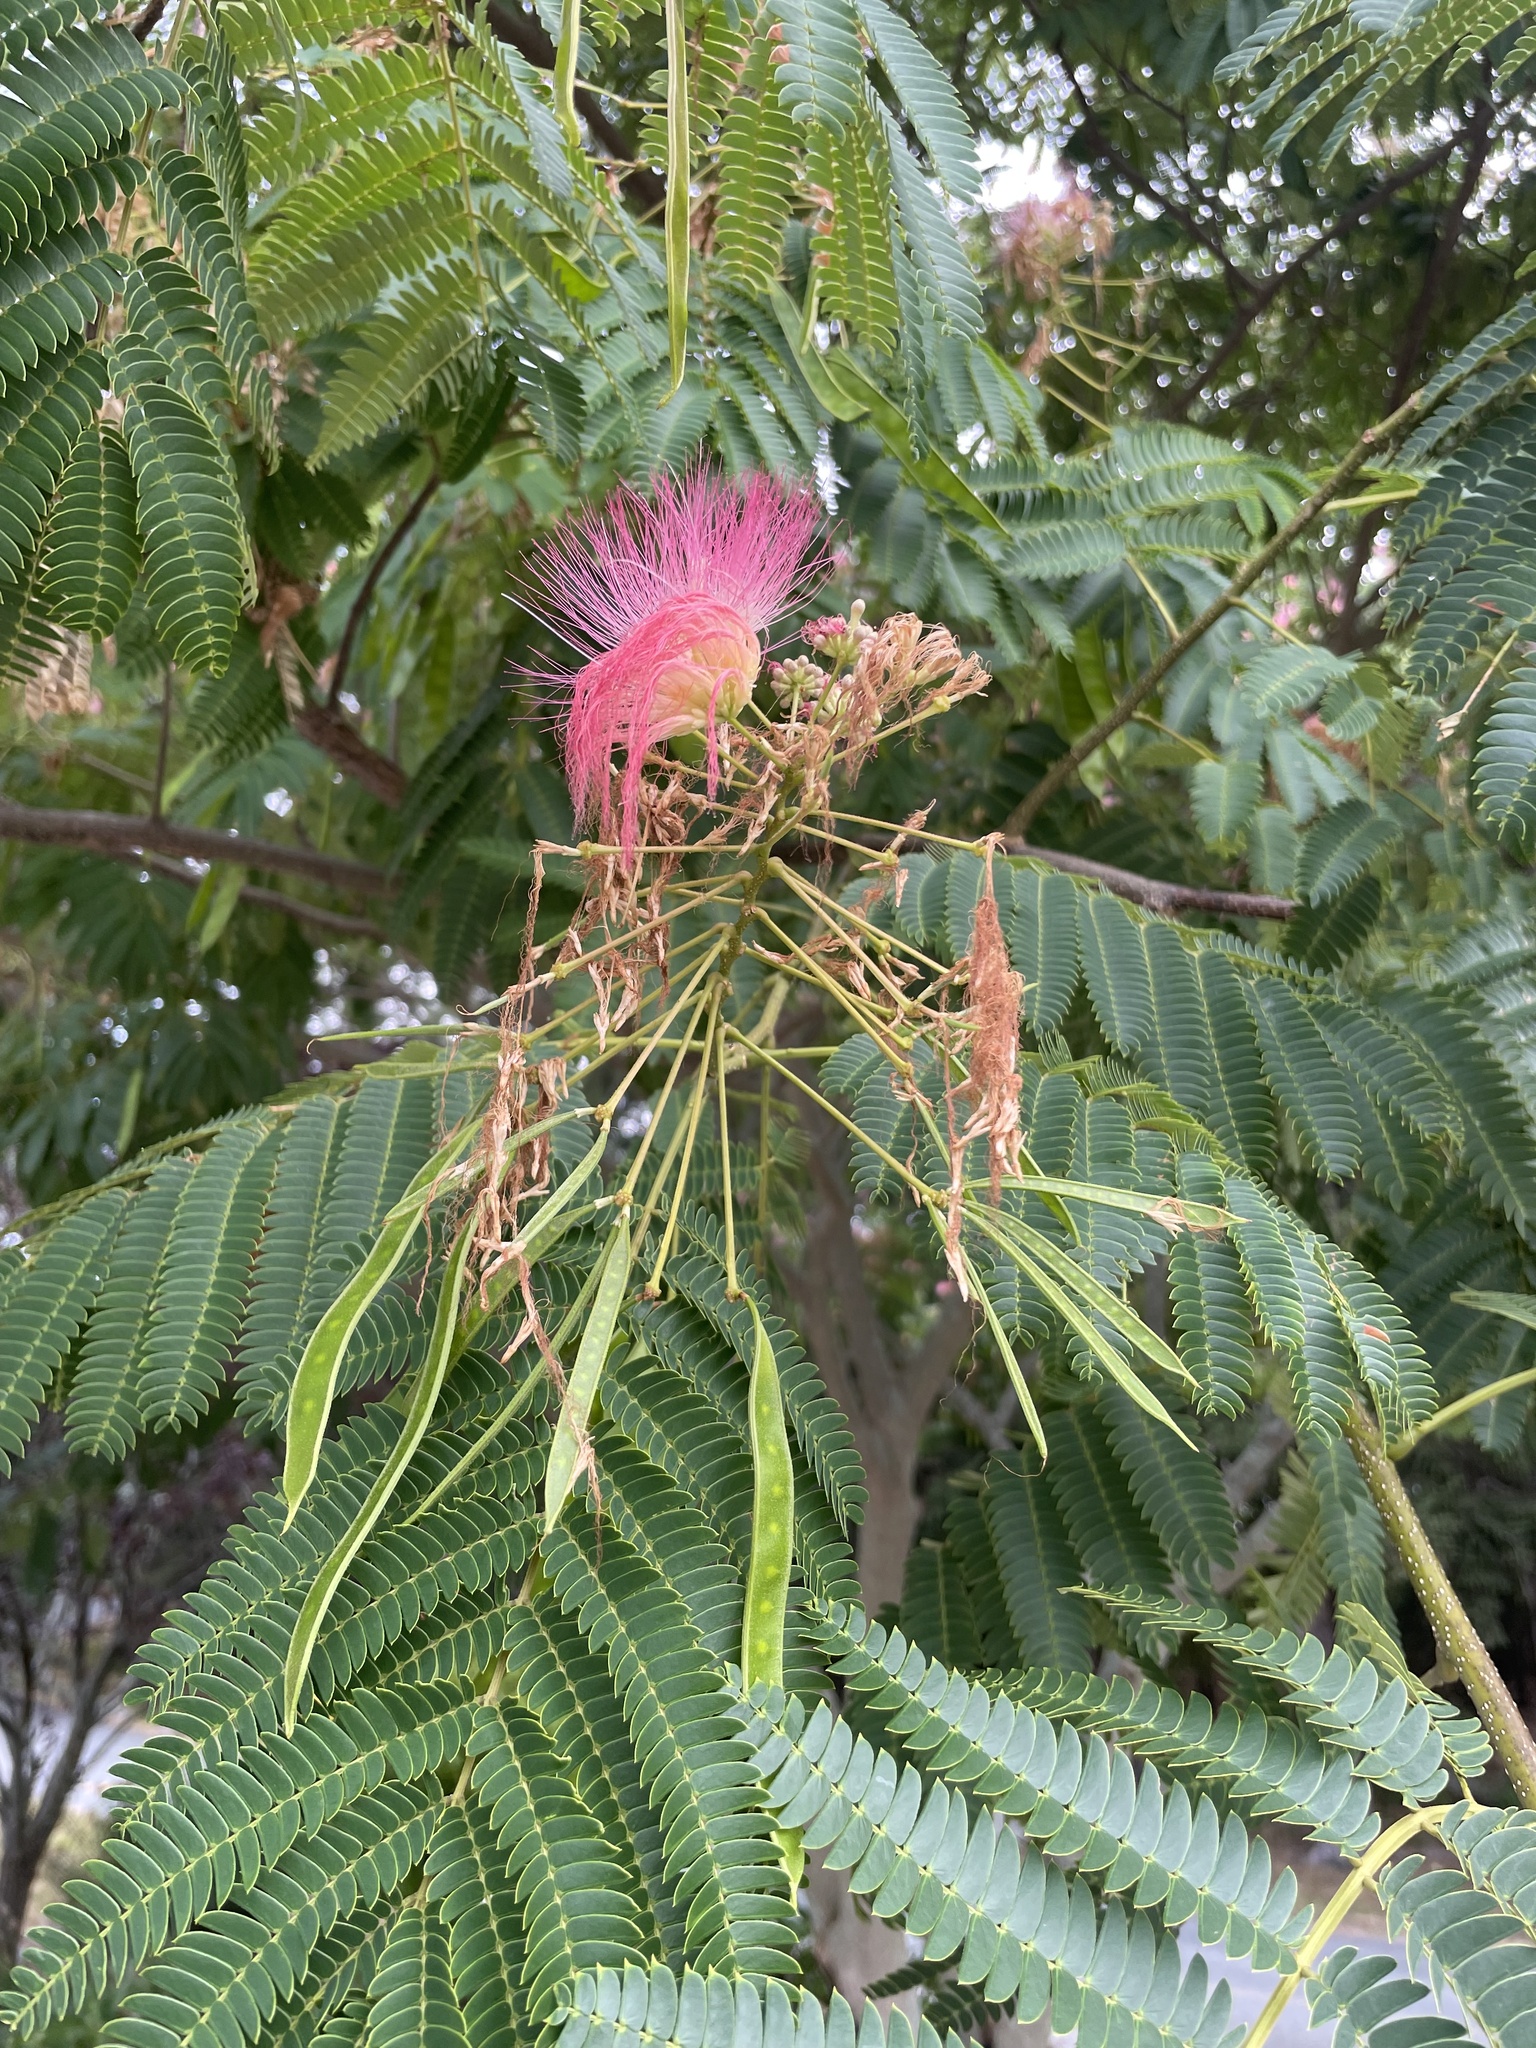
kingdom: Plantae
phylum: Tracheophyta
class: Magnoliopsida
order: Fabales
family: Fabaceae
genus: Albizia
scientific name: Albizia julibrissin
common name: Silktree
